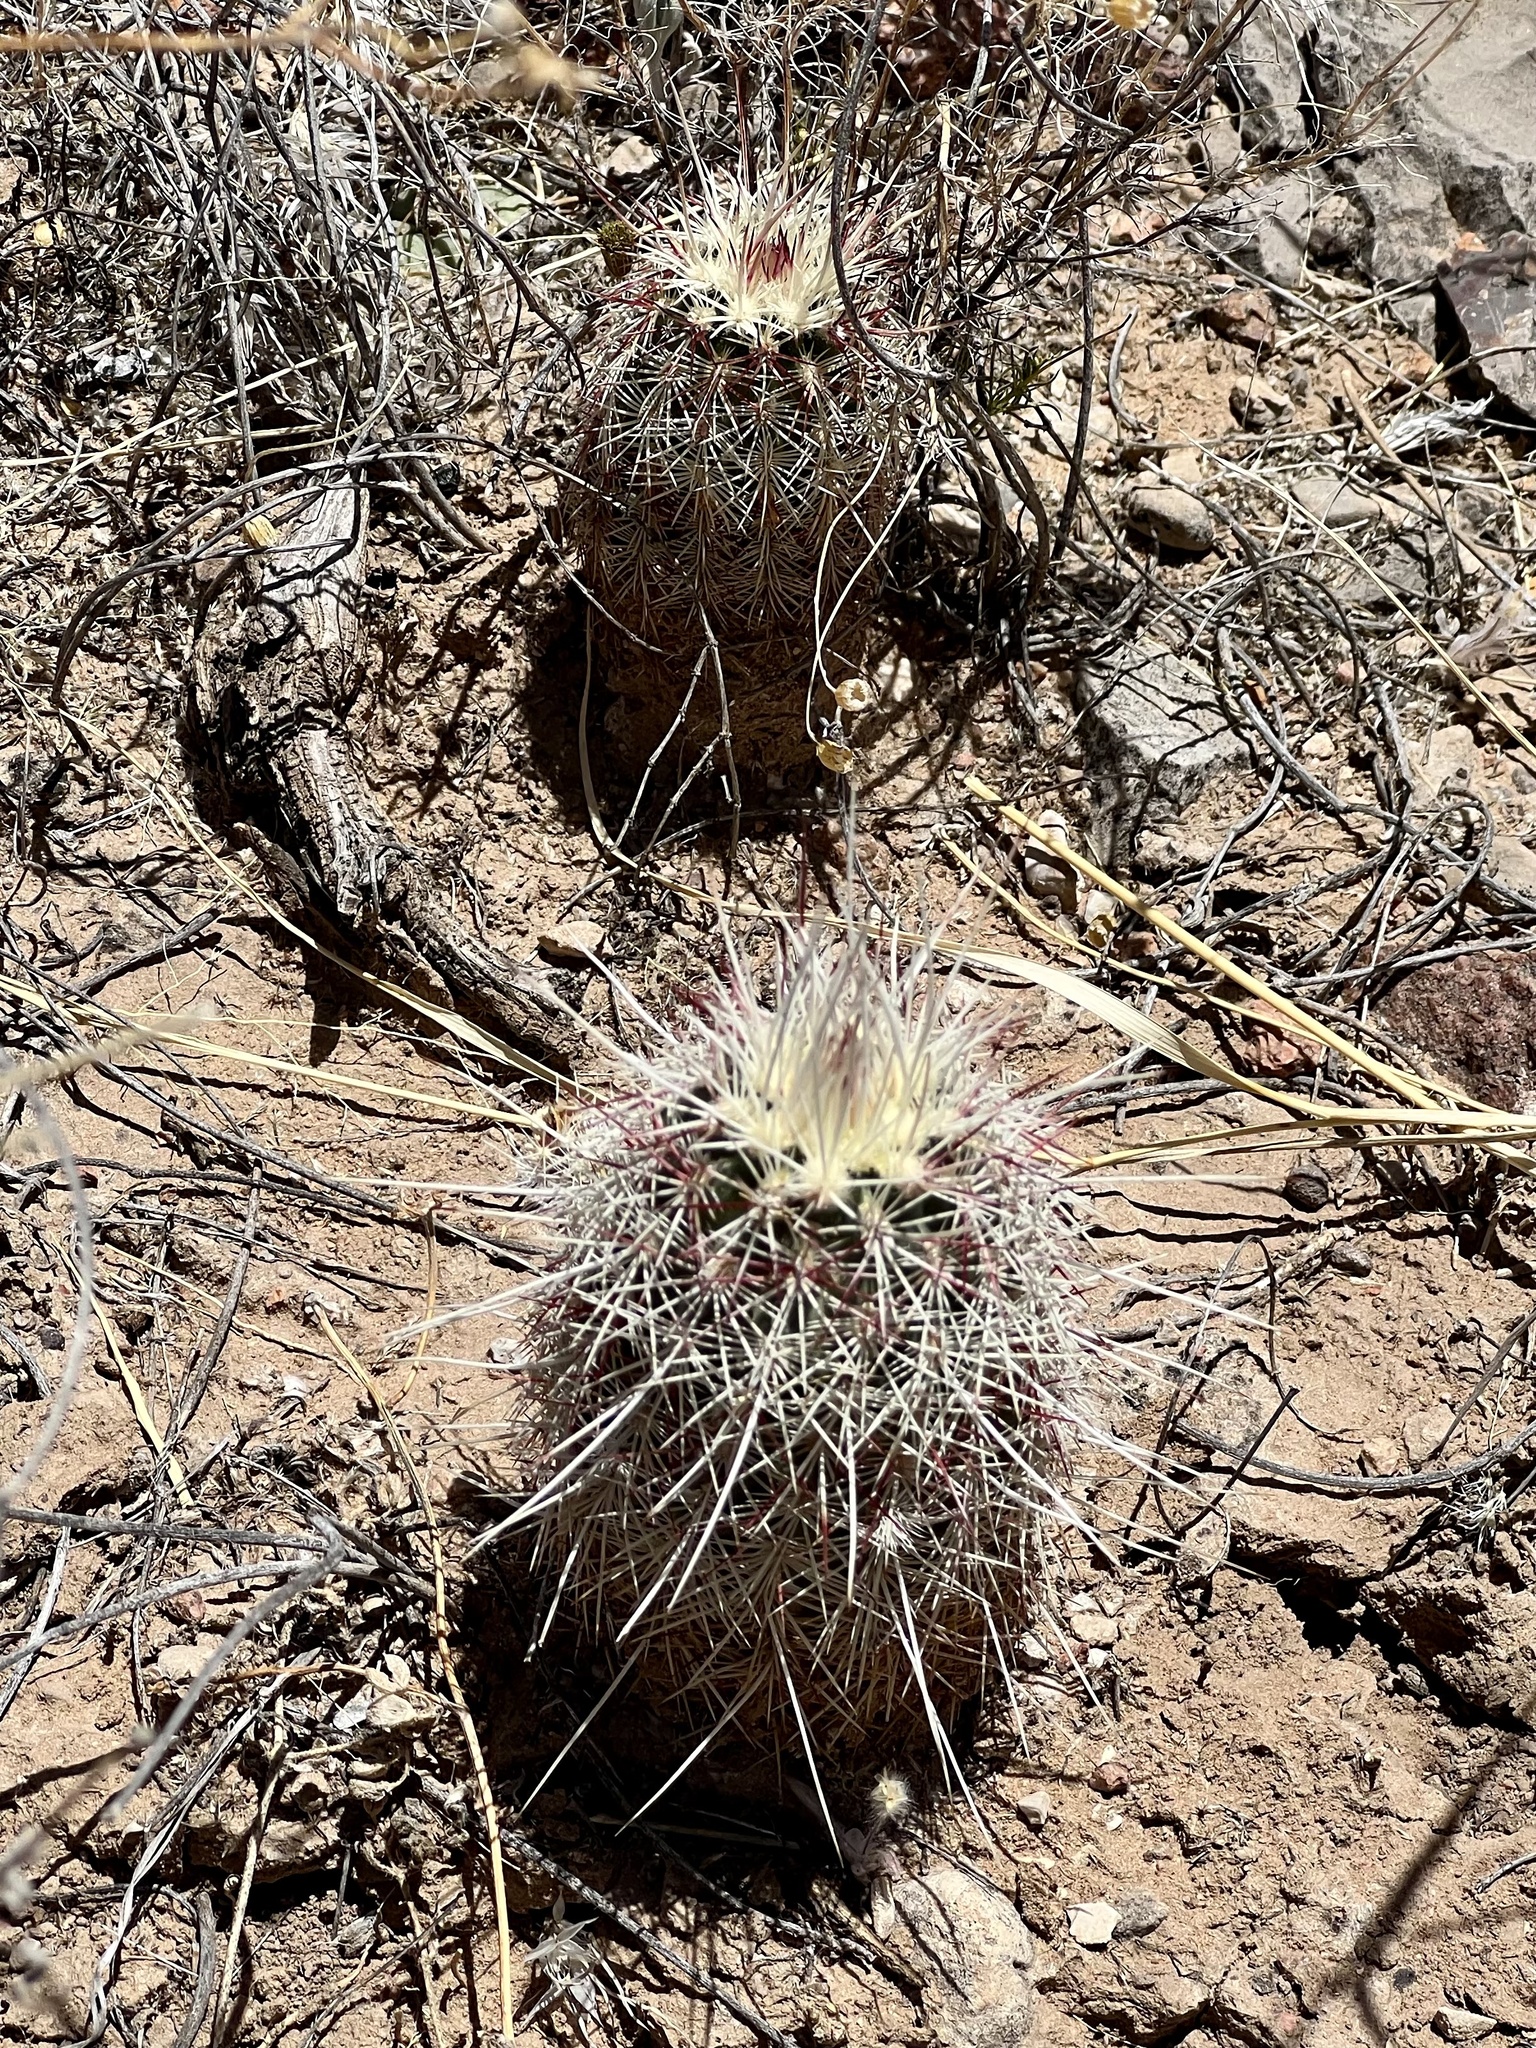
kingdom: Plantae
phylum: Tracheophyta
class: Magnoliopsida
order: Caryophyllales
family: Cactaceae
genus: Echinocereus
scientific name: Echinocereus viridiflorus
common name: Nylon hedgehog cactus
